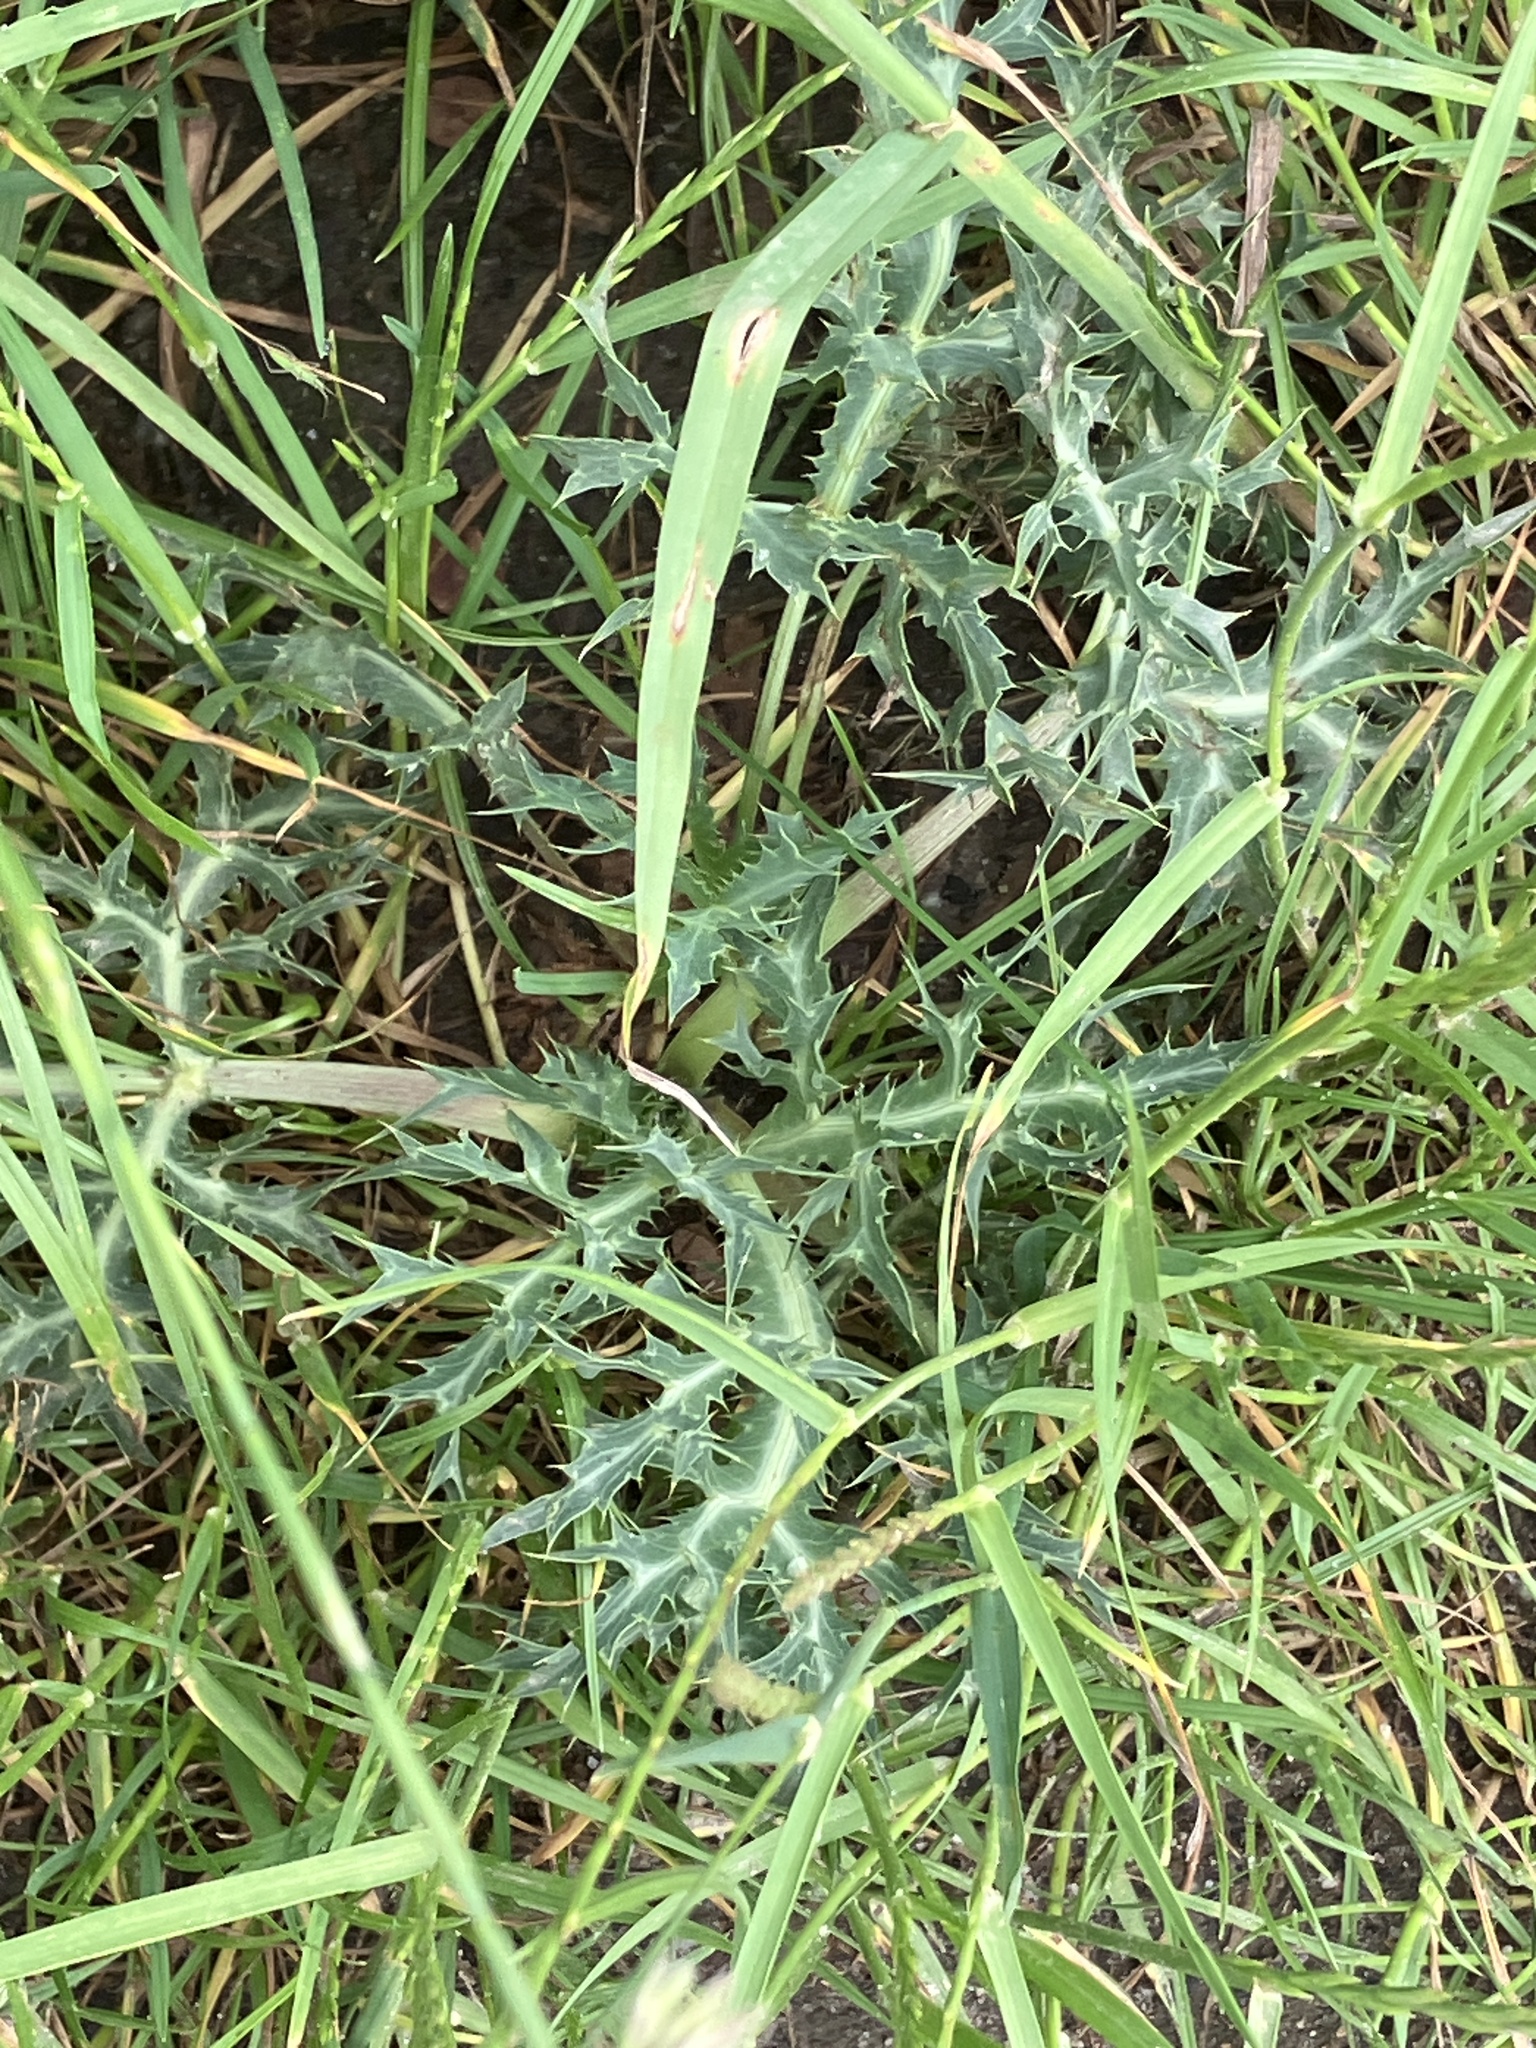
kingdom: Plantae
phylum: Tracheophyta
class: Magnoliopsida
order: Apiales
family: Apiaceae
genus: Eryngium
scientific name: Eryngium campestre
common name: Field eryngo
